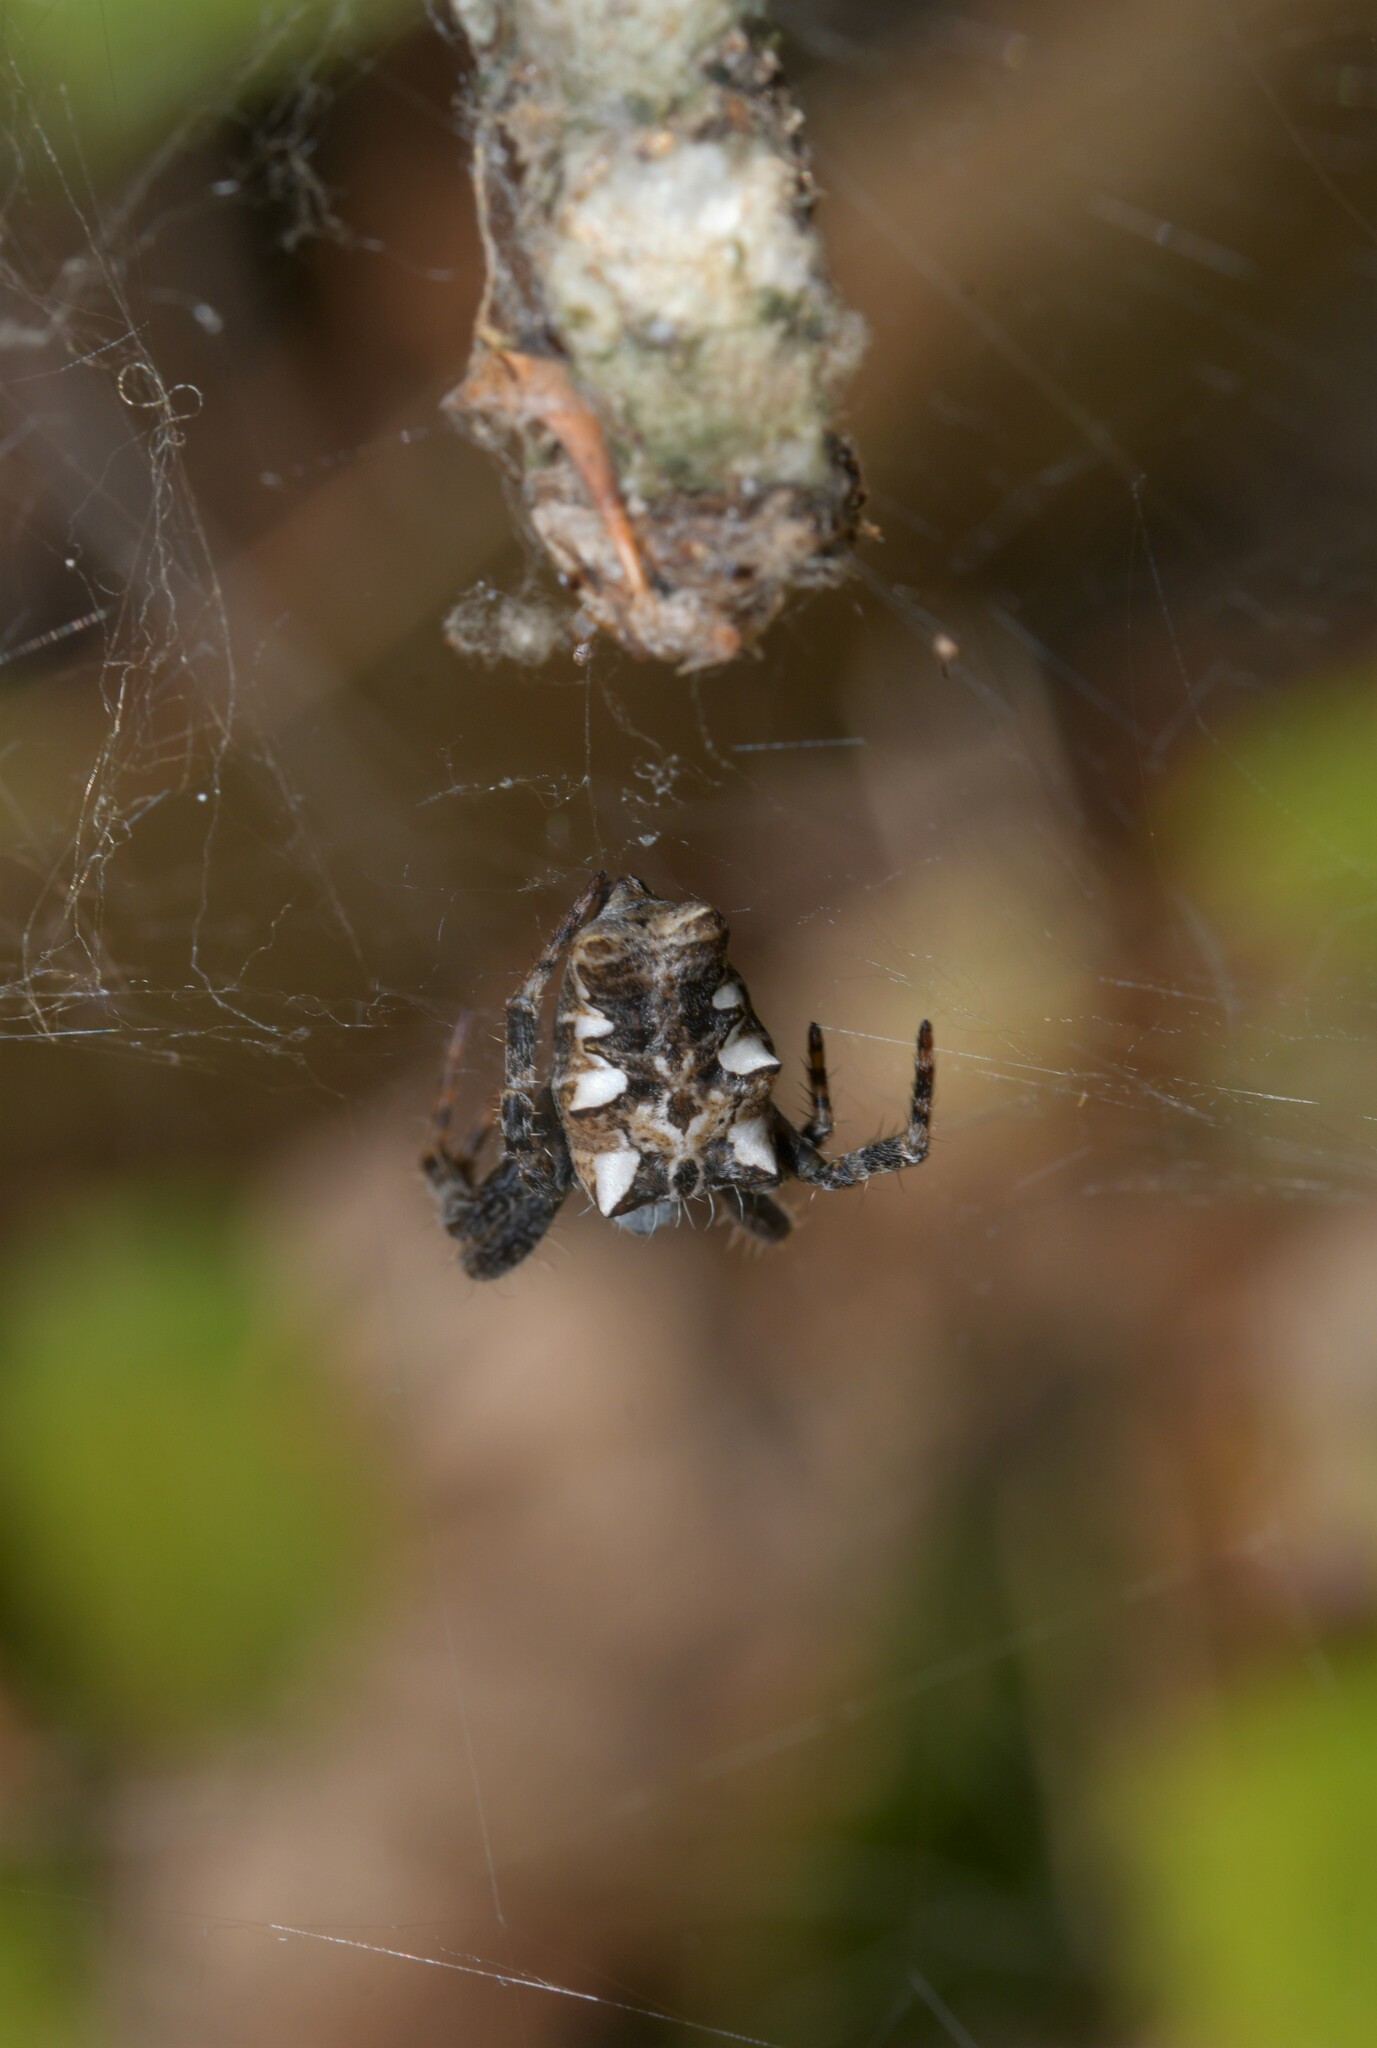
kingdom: Animalia
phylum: Arthropoda
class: Arachnida
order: Araneae
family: Araneidae
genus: Cyrtophora
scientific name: Cyrtophora citricola
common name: Orb weavers
